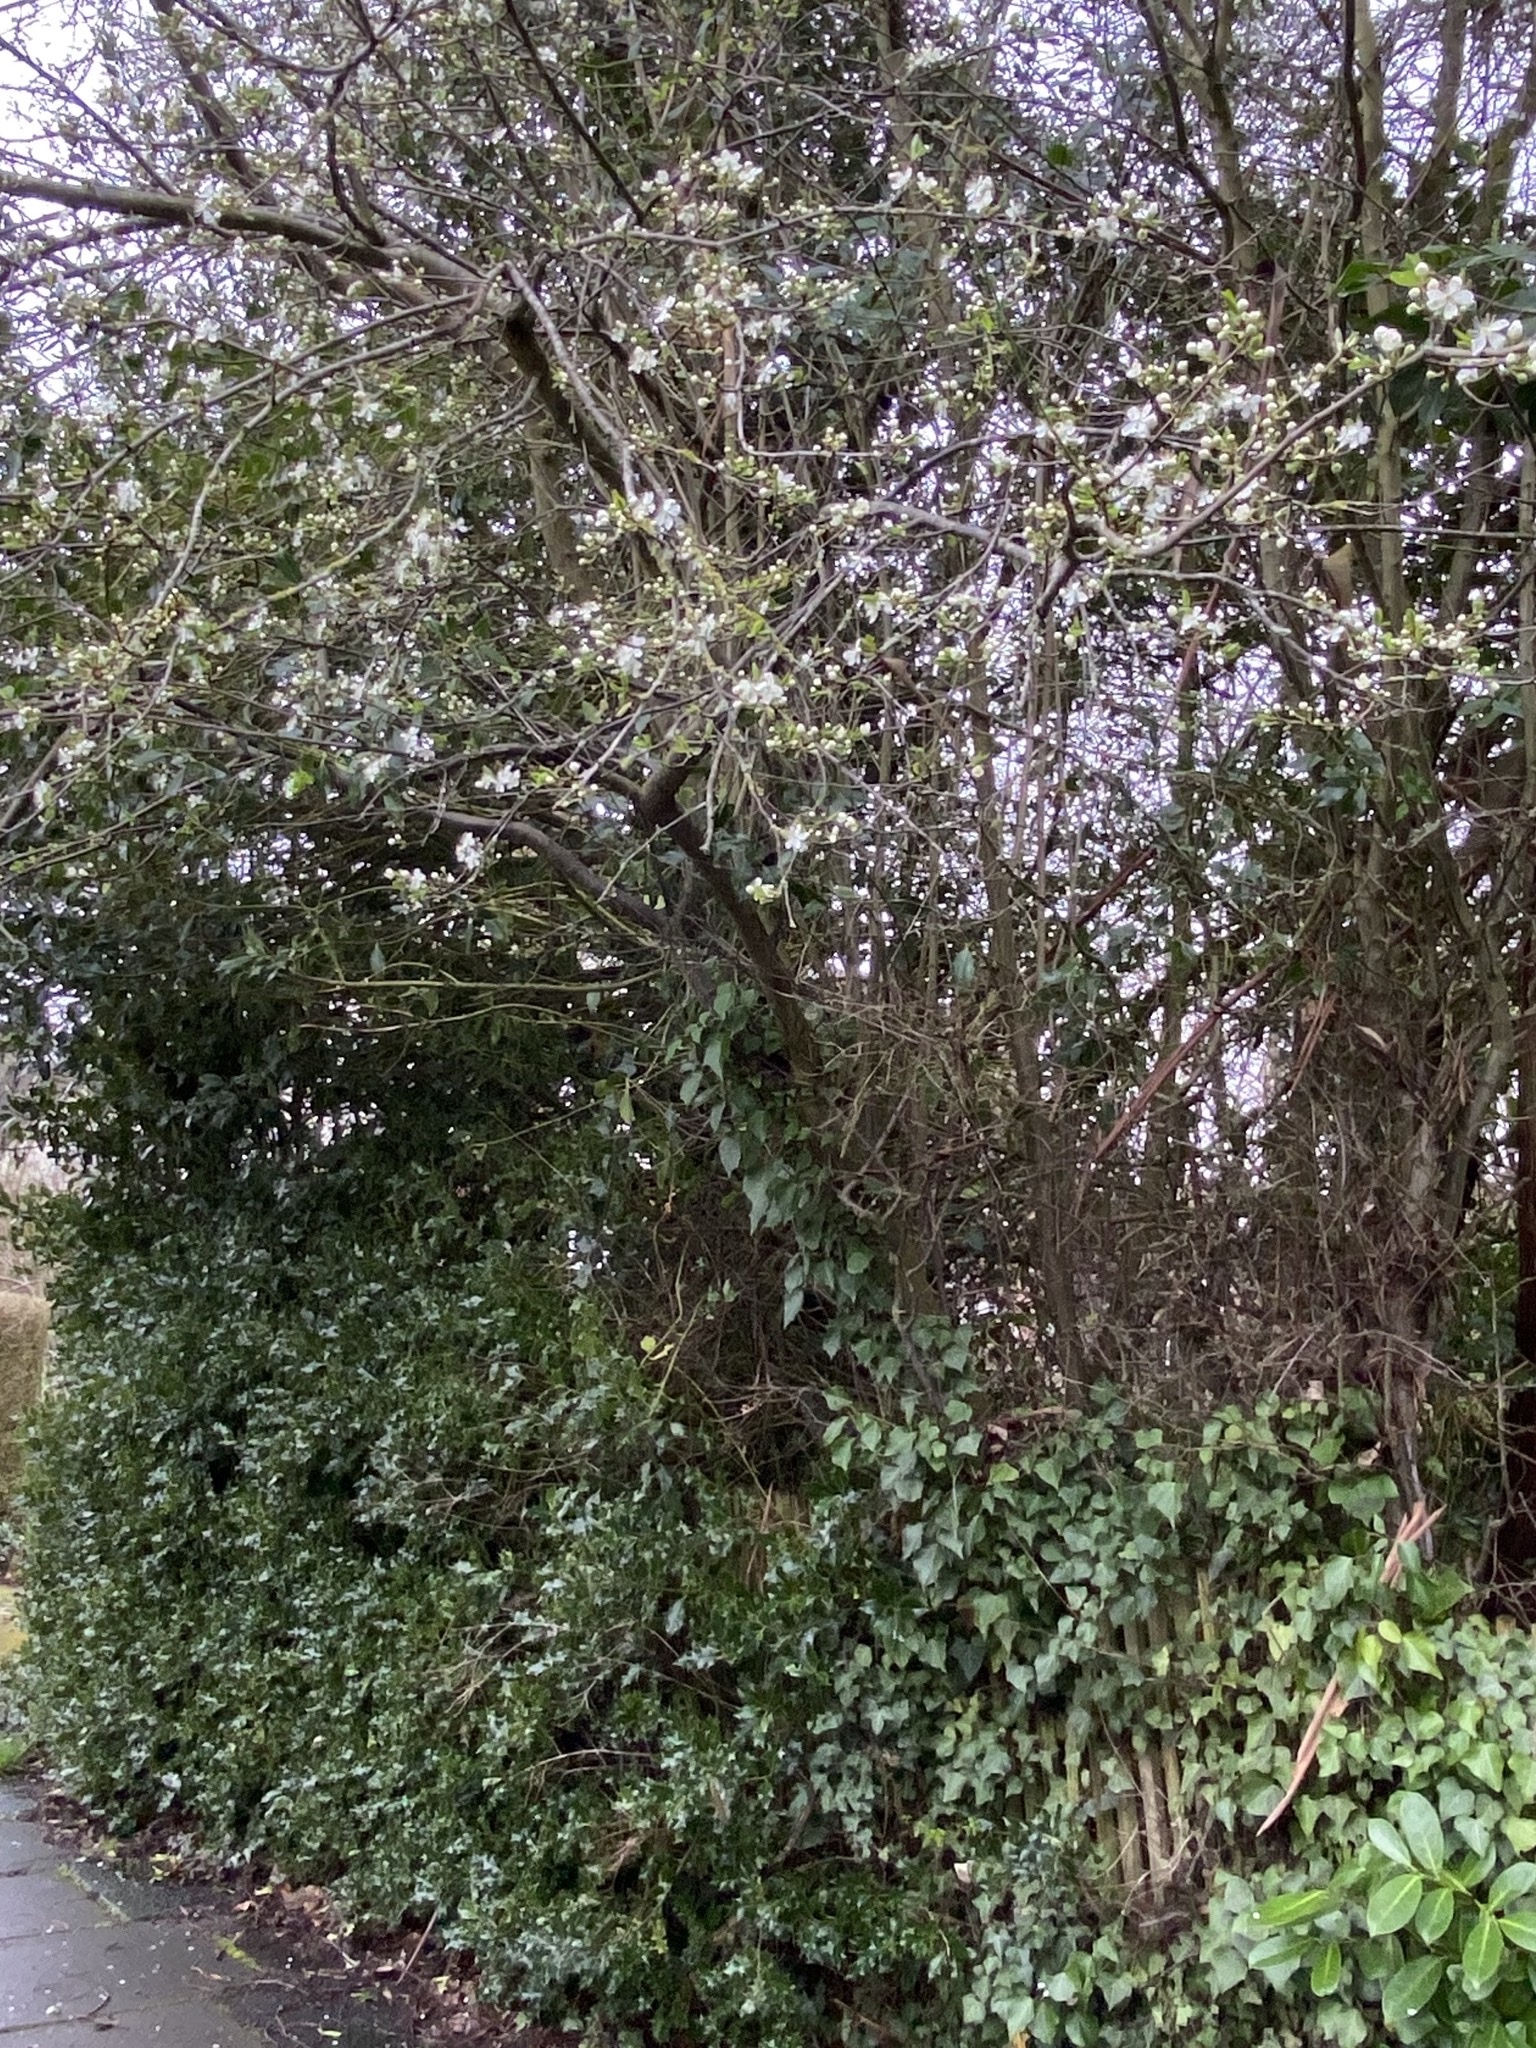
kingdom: Plantae
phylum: Tracheophyta
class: Magnoliopsida
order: Rosales
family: Rosaceae
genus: Prunus
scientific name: Prunus cerasifera
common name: Cherry plum
